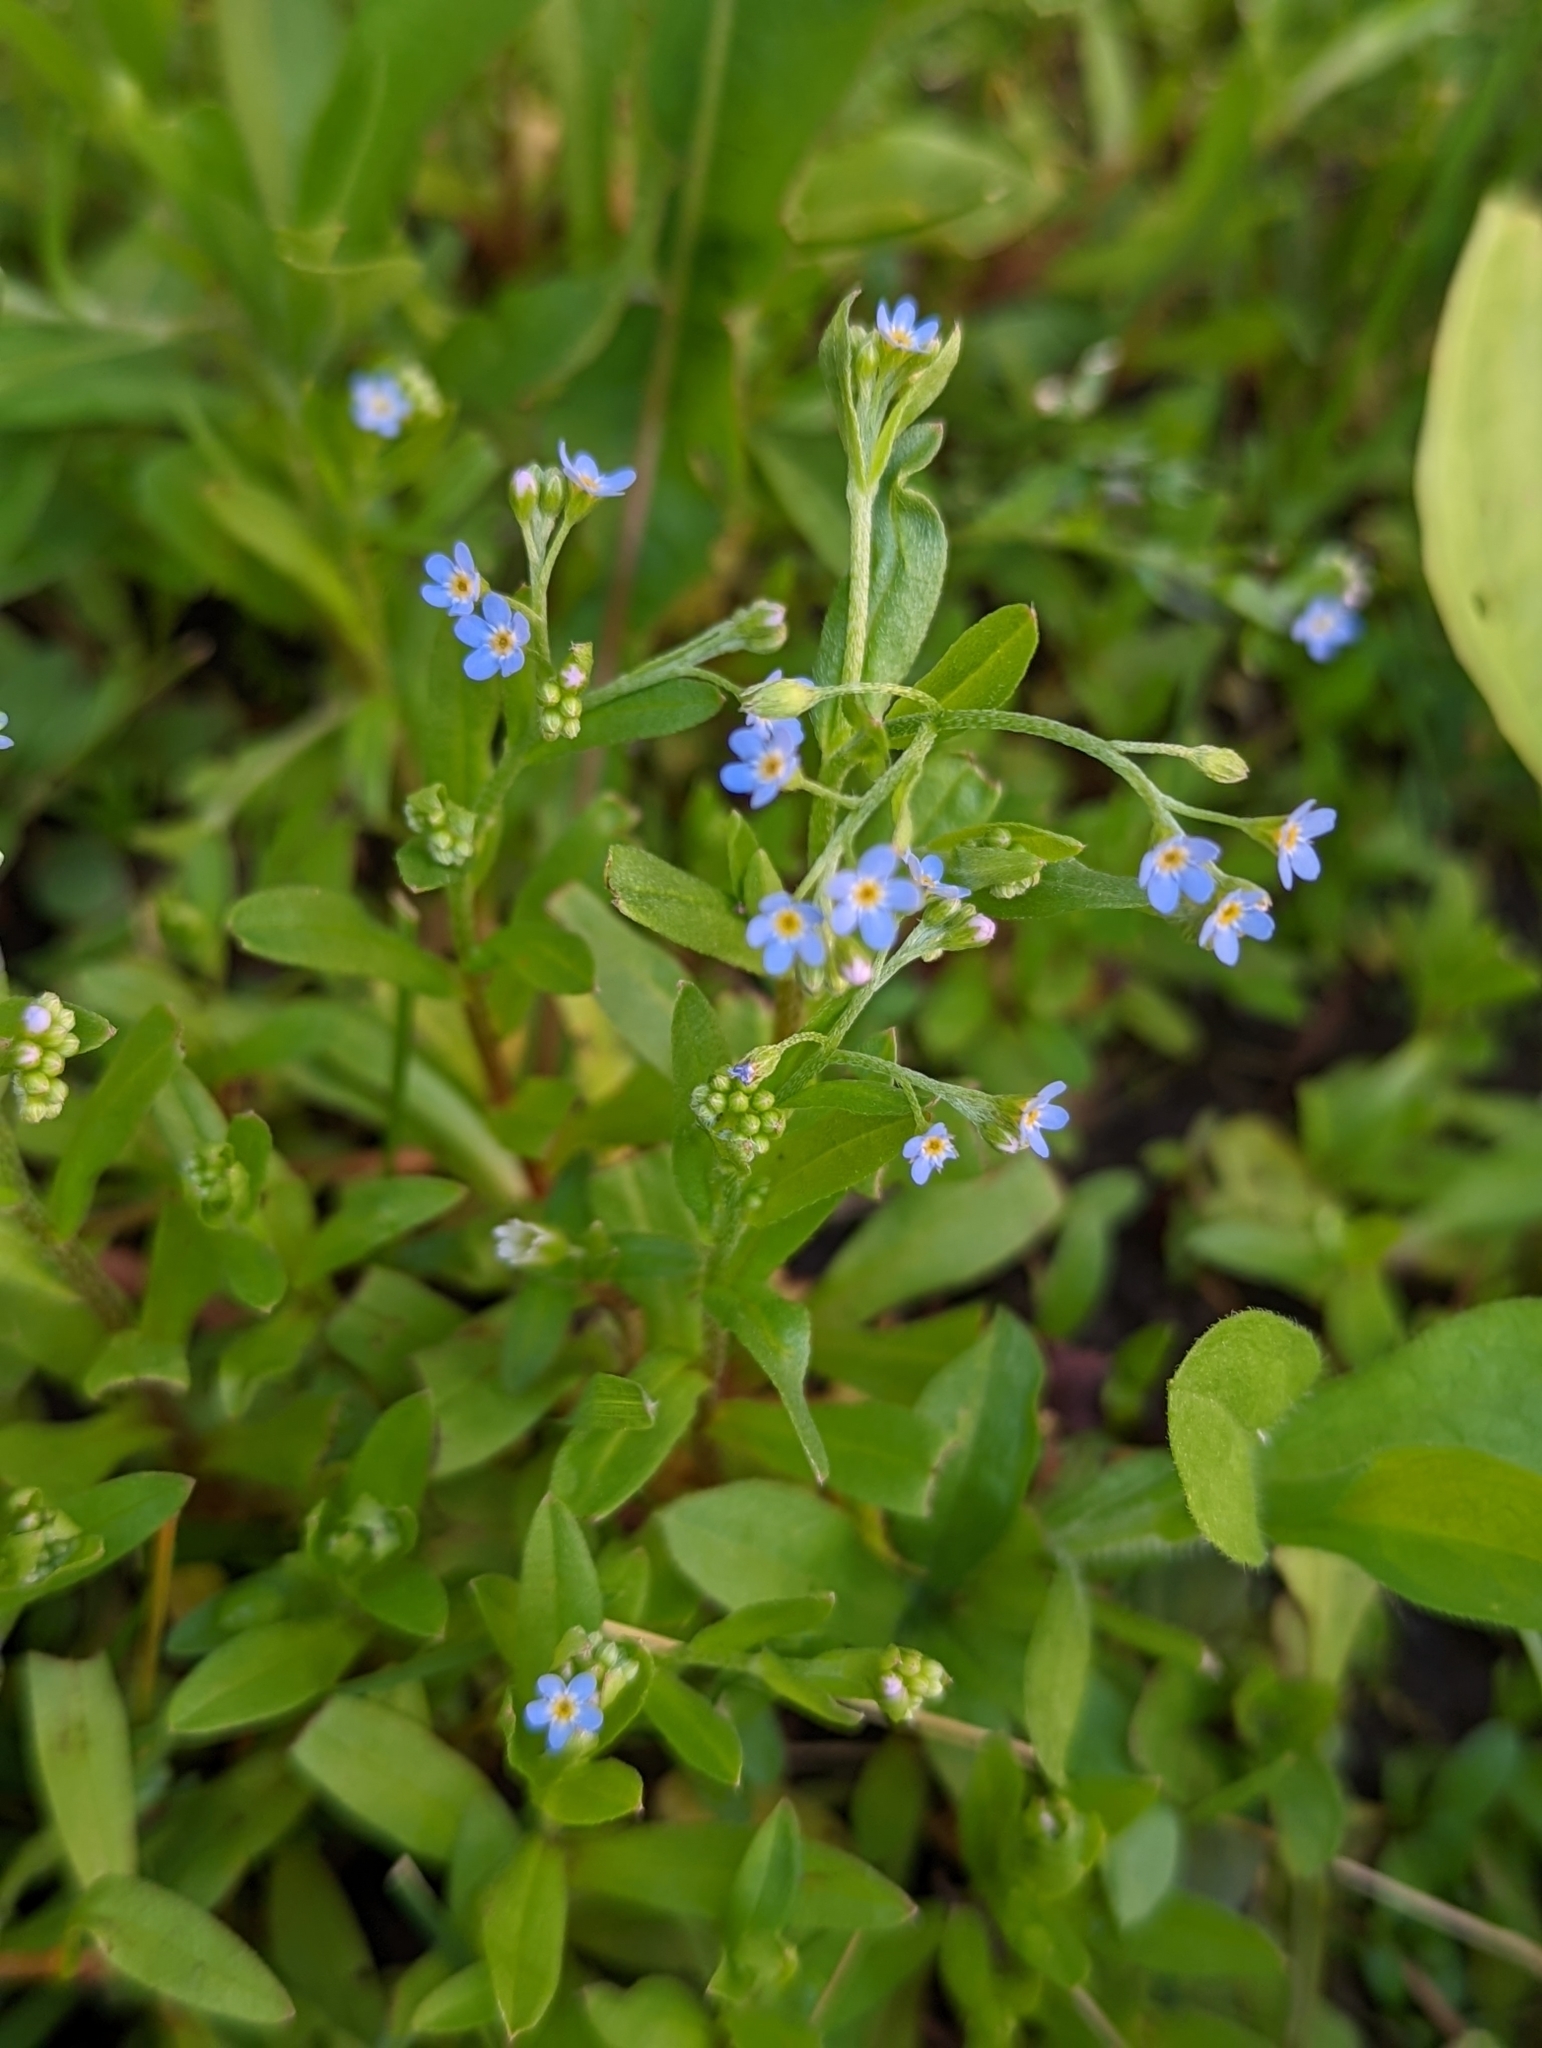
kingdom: Plantae
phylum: Tracheophyta
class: Magnoliopsida
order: Boraginales
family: Boraginaceae
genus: Myosotis
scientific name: Myosotis laxa
